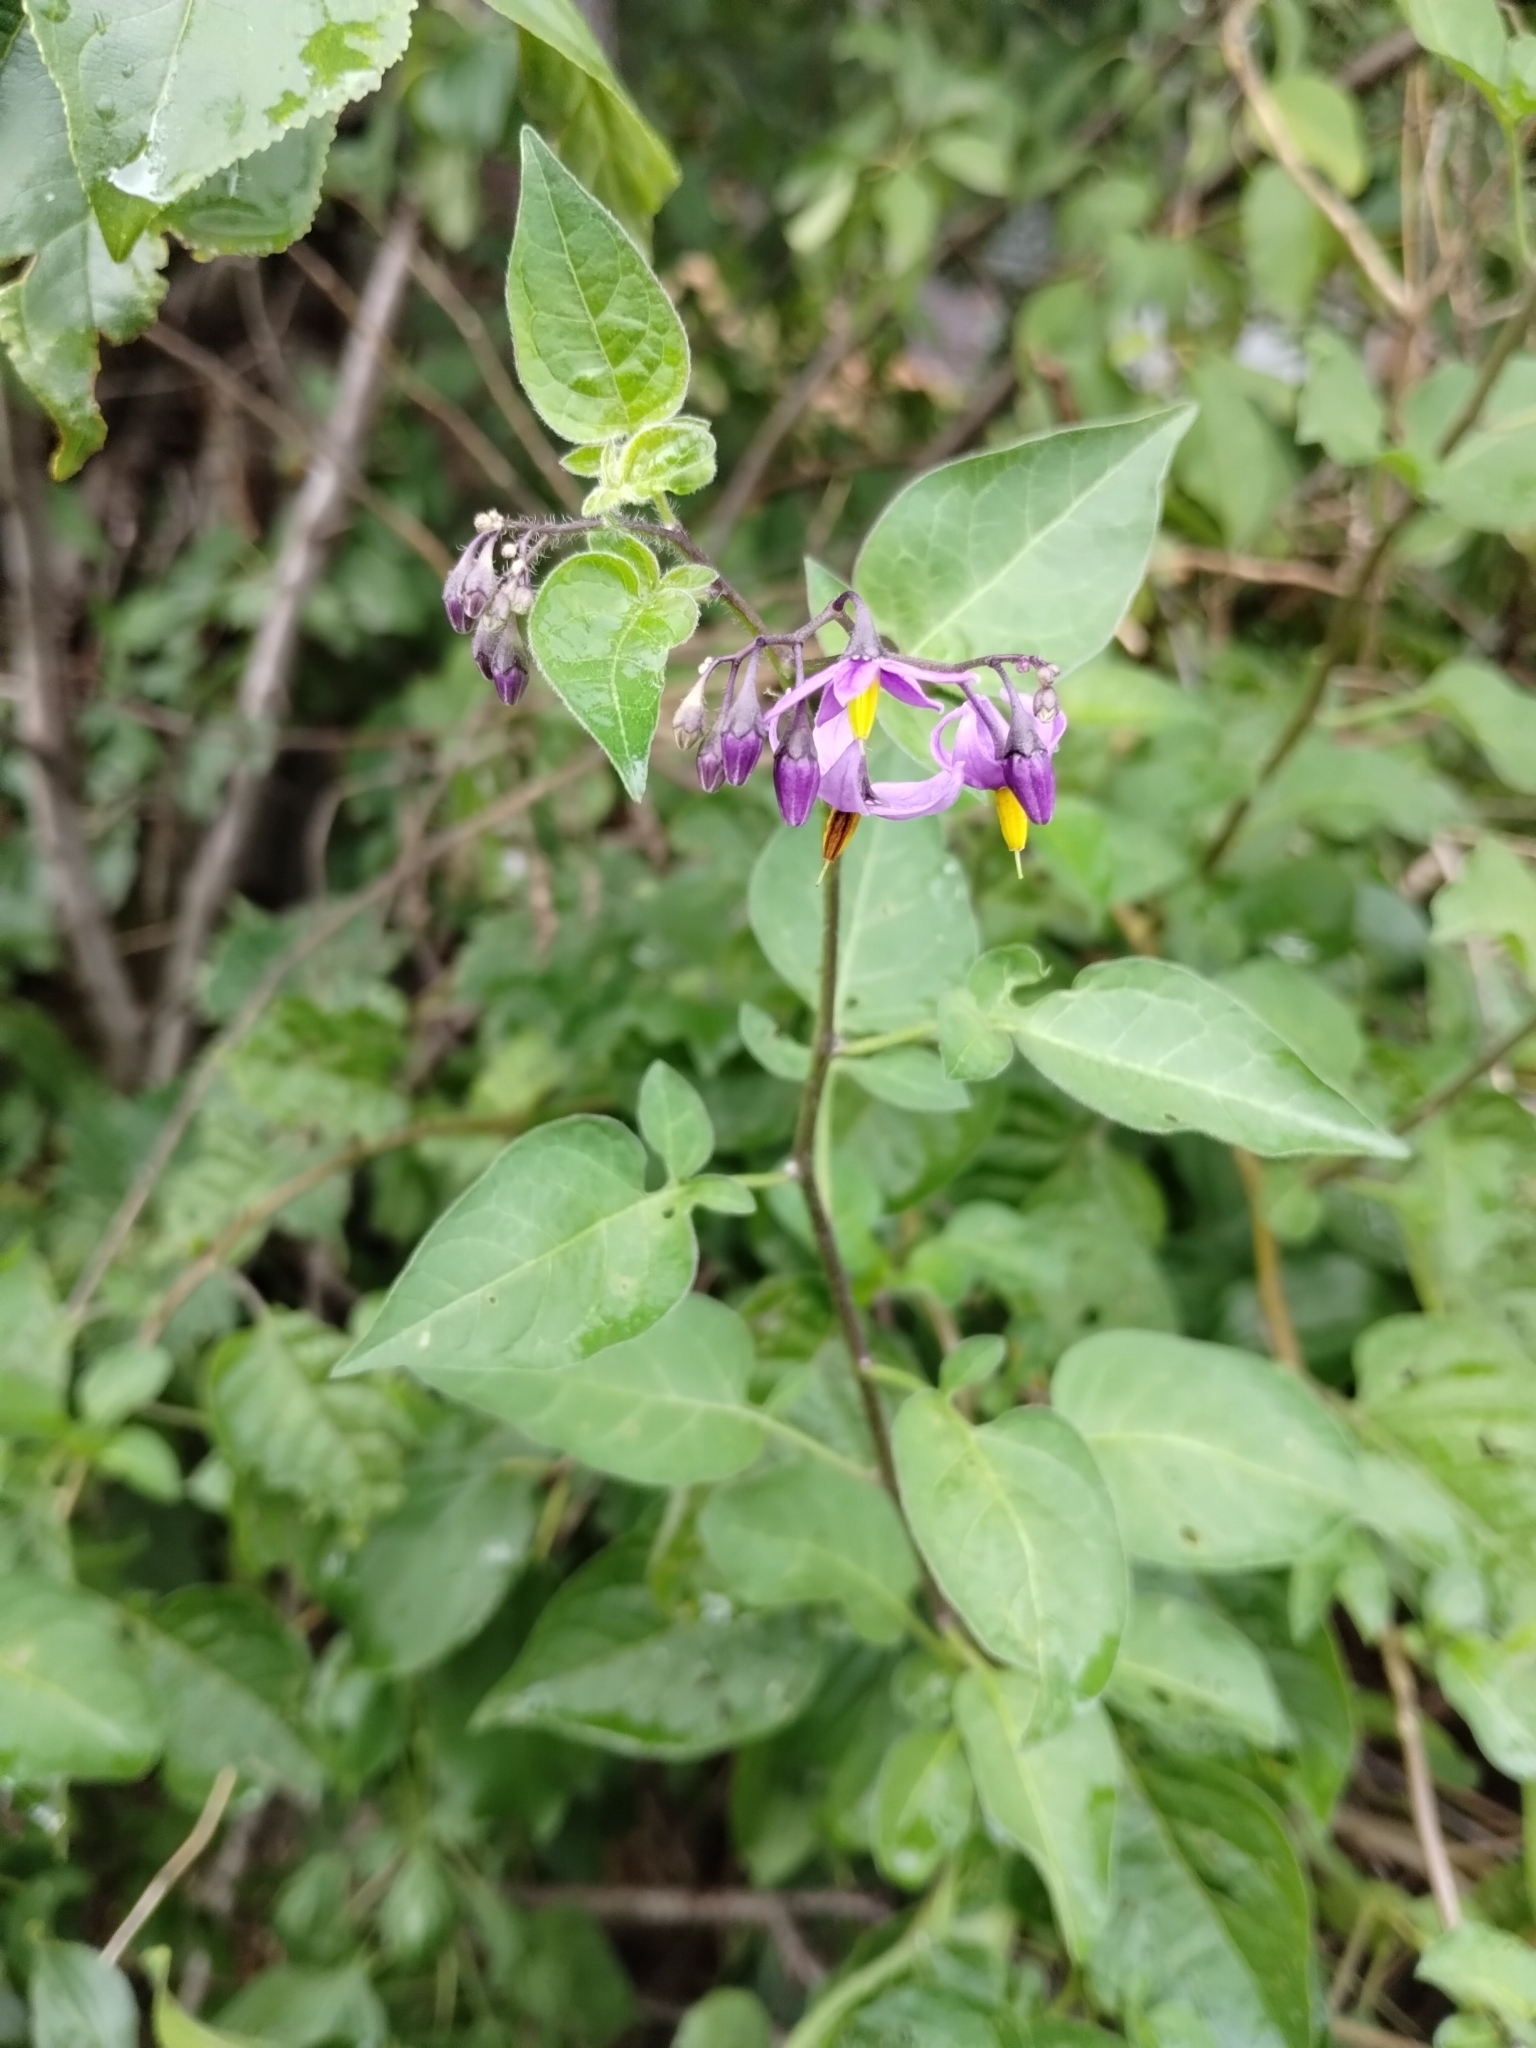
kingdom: Plantae
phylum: Tracheophyta
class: Magnoliopsida
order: Solanales
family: Solanaceae
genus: Solanum
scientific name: Solanum dulcamara
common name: Climbing nightshade
